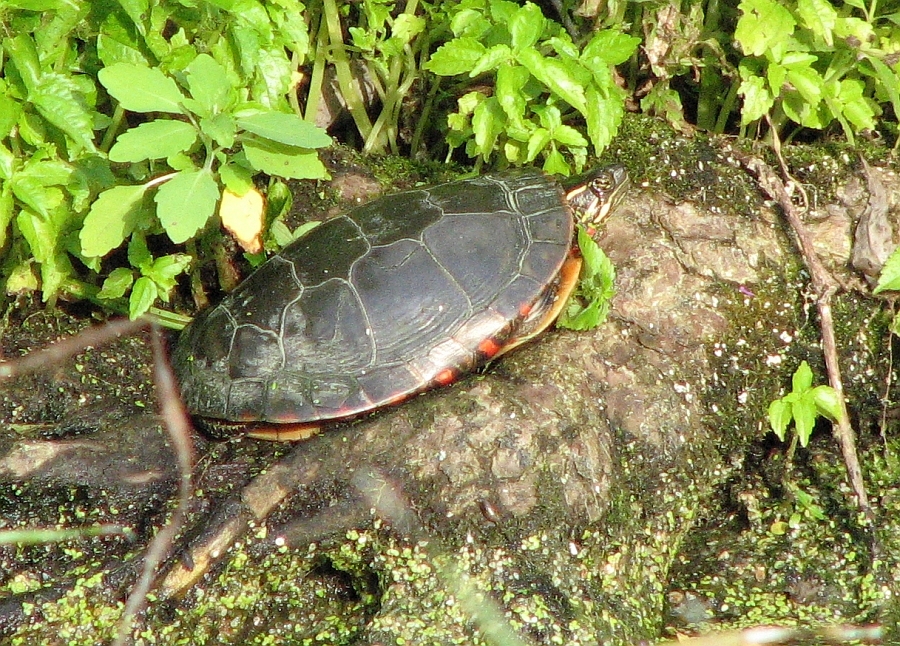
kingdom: Animalia
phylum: Chordata
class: Testudines
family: Emydidae
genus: Chrysemys
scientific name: Chrysemys picta
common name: Painted turtle
